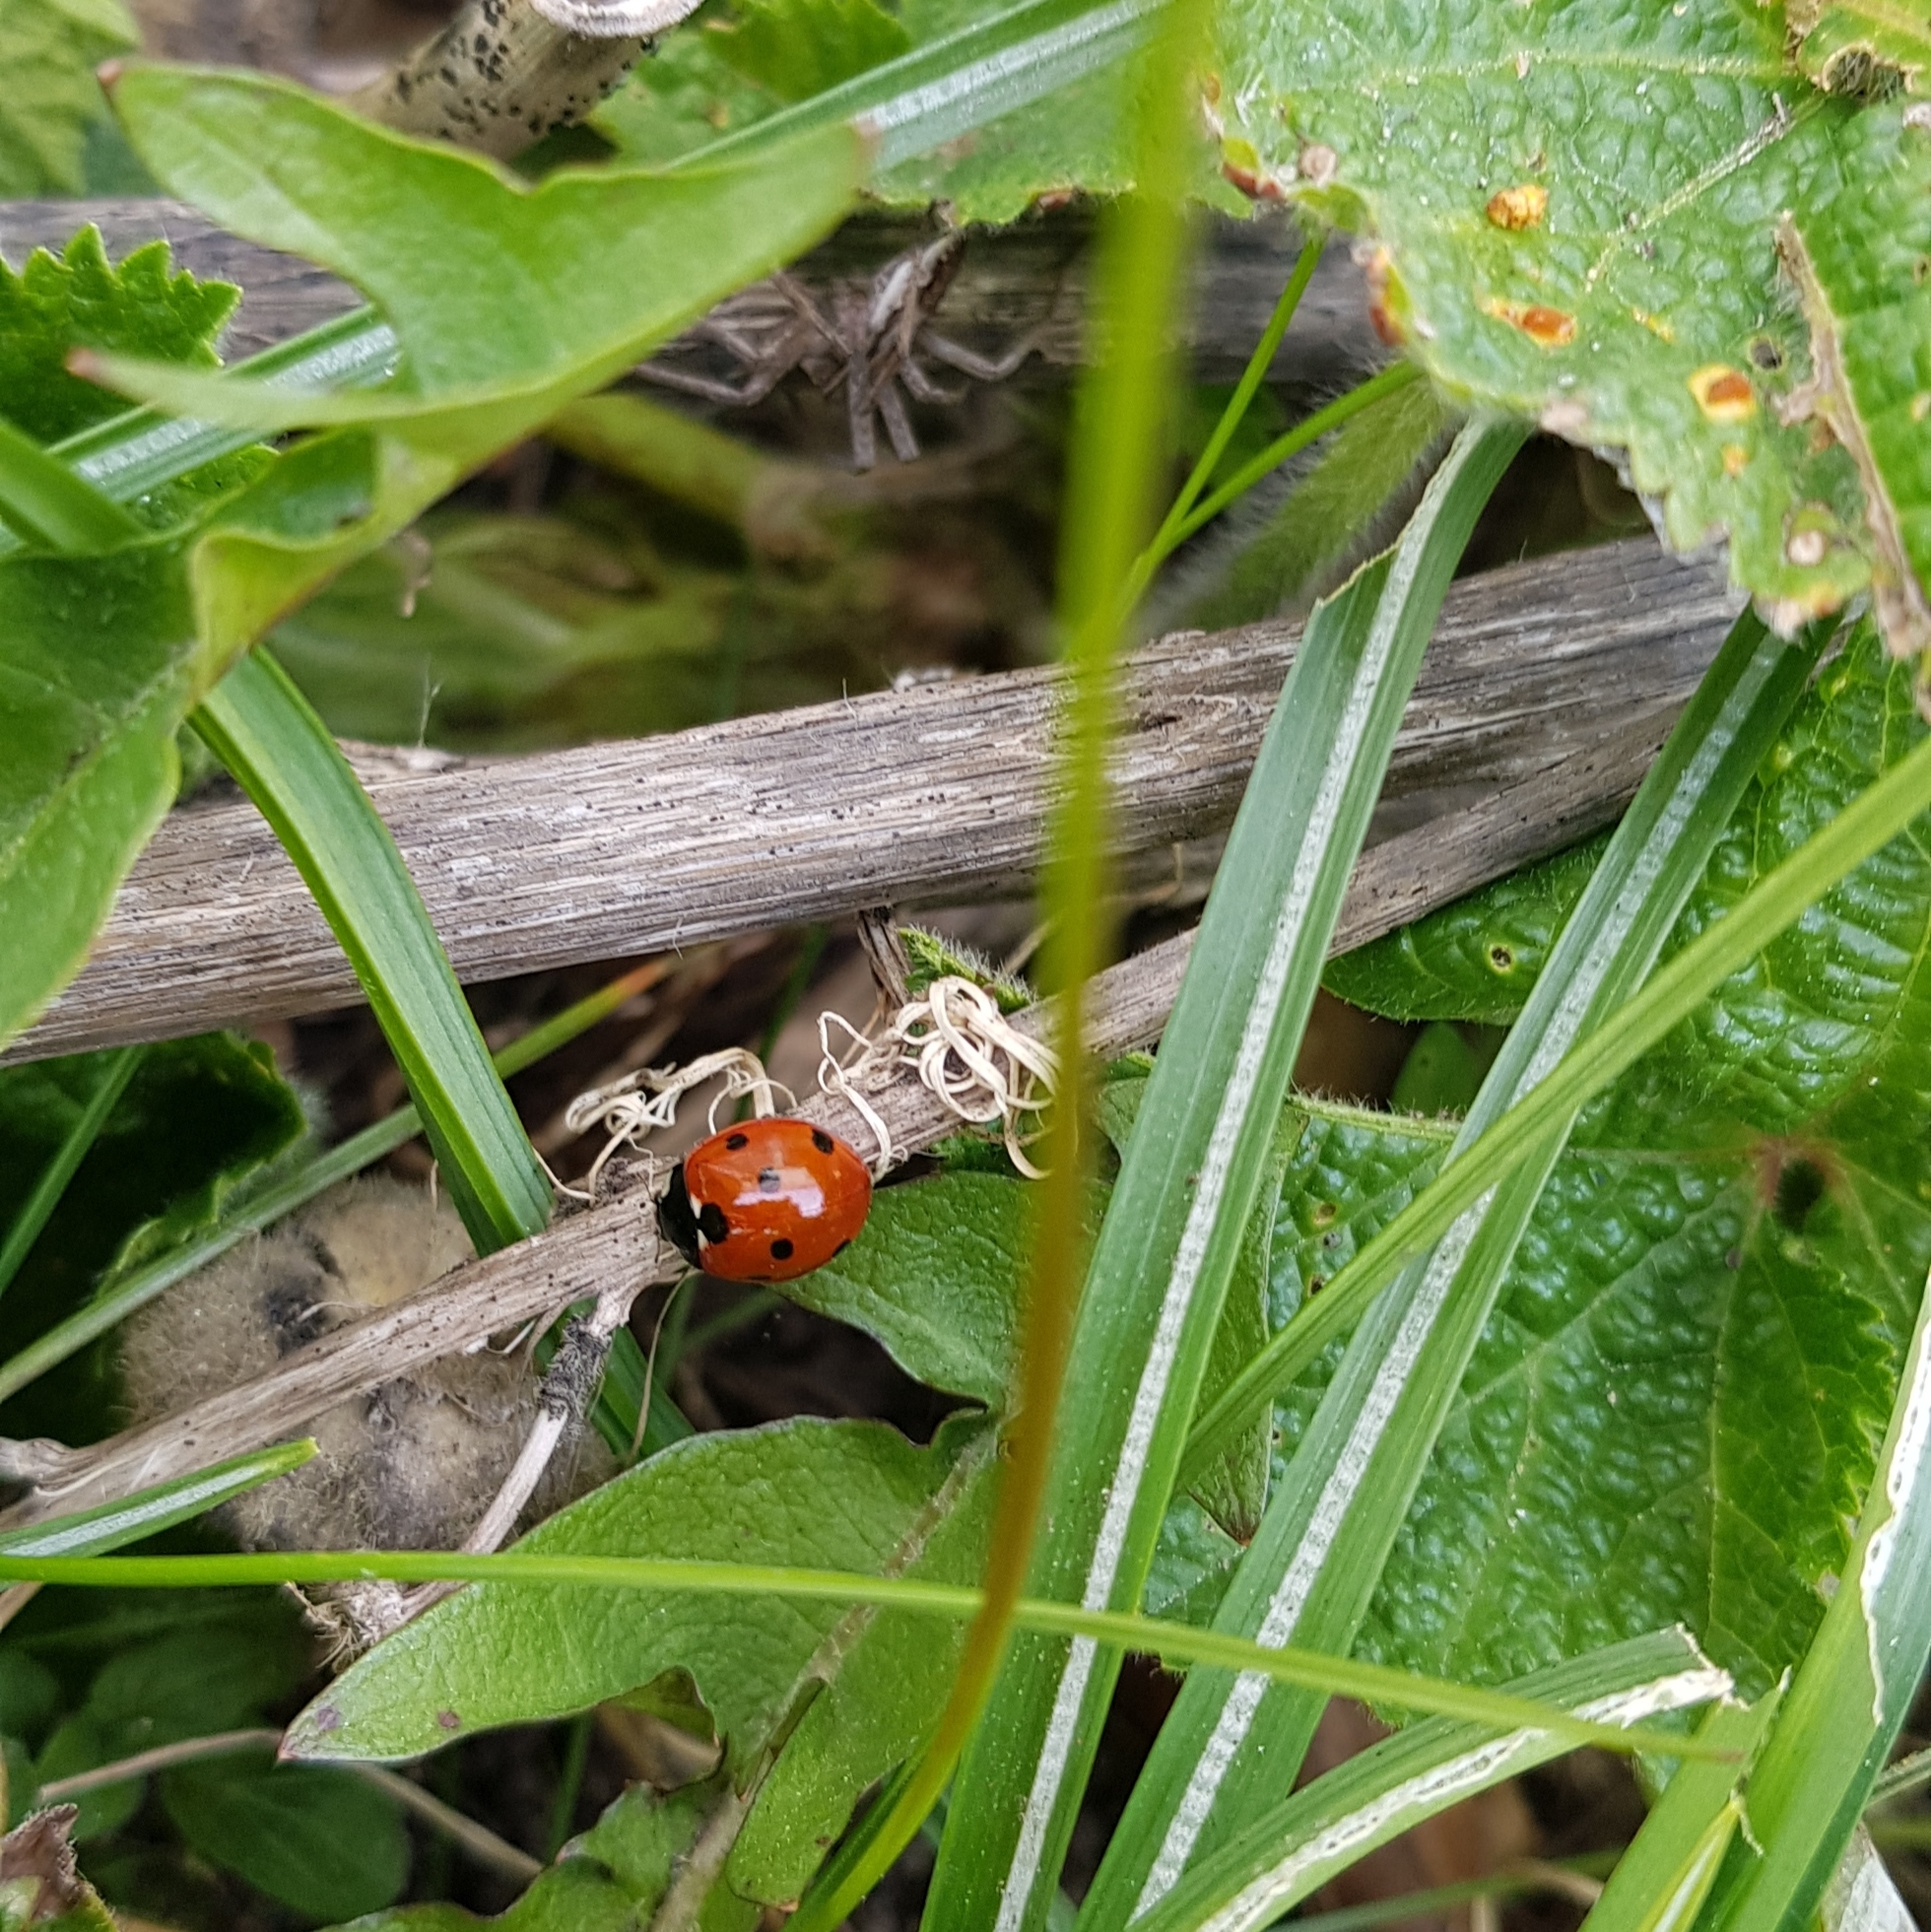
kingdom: Animalia
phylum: Arthropoda
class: Insecta
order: Coleoptera
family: Coccinellidae
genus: Coccinella
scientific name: Coccinella septempunctata
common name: Sevenspotted lady beetle
